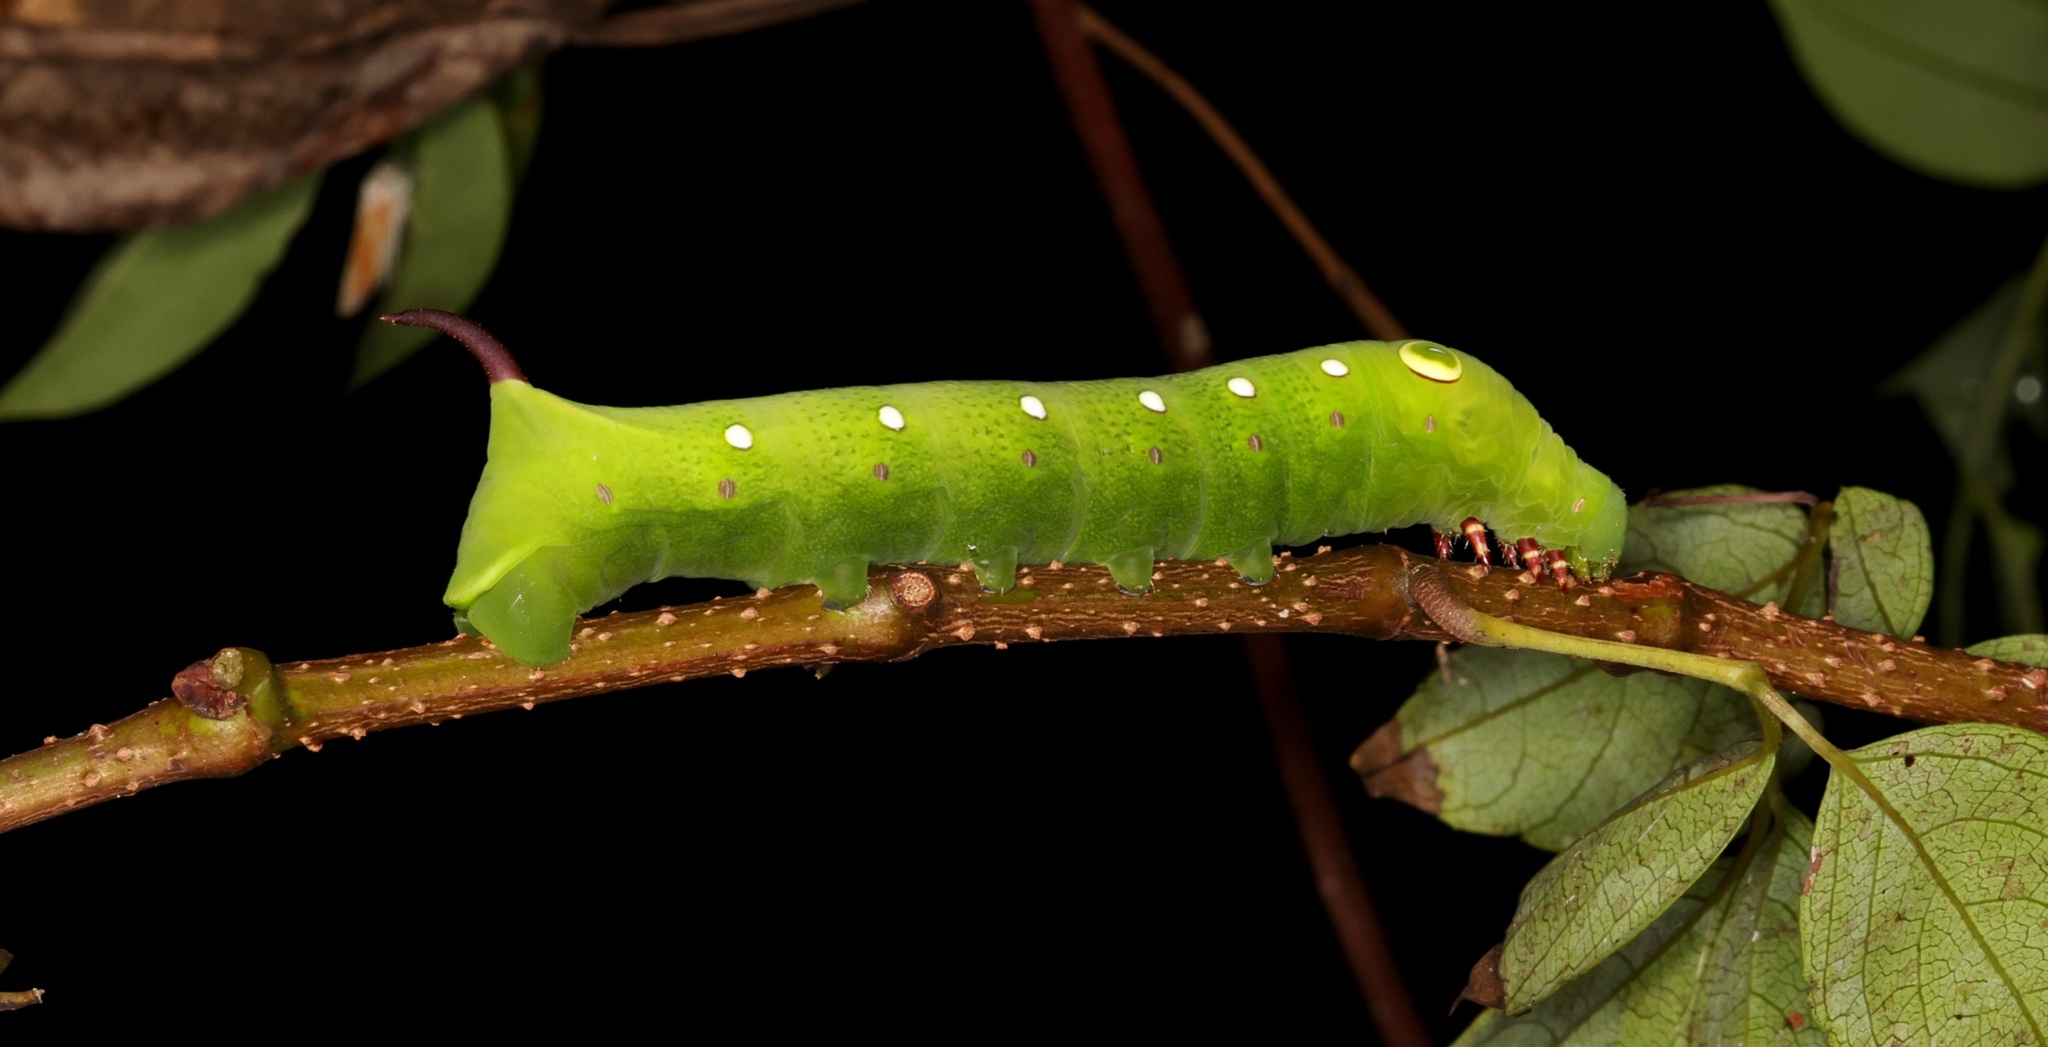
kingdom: Animalia
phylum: Arthropoda
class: Insecta
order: Lepidoptera
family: Sphingidae
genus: Theretra
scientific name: Theretra clotho
